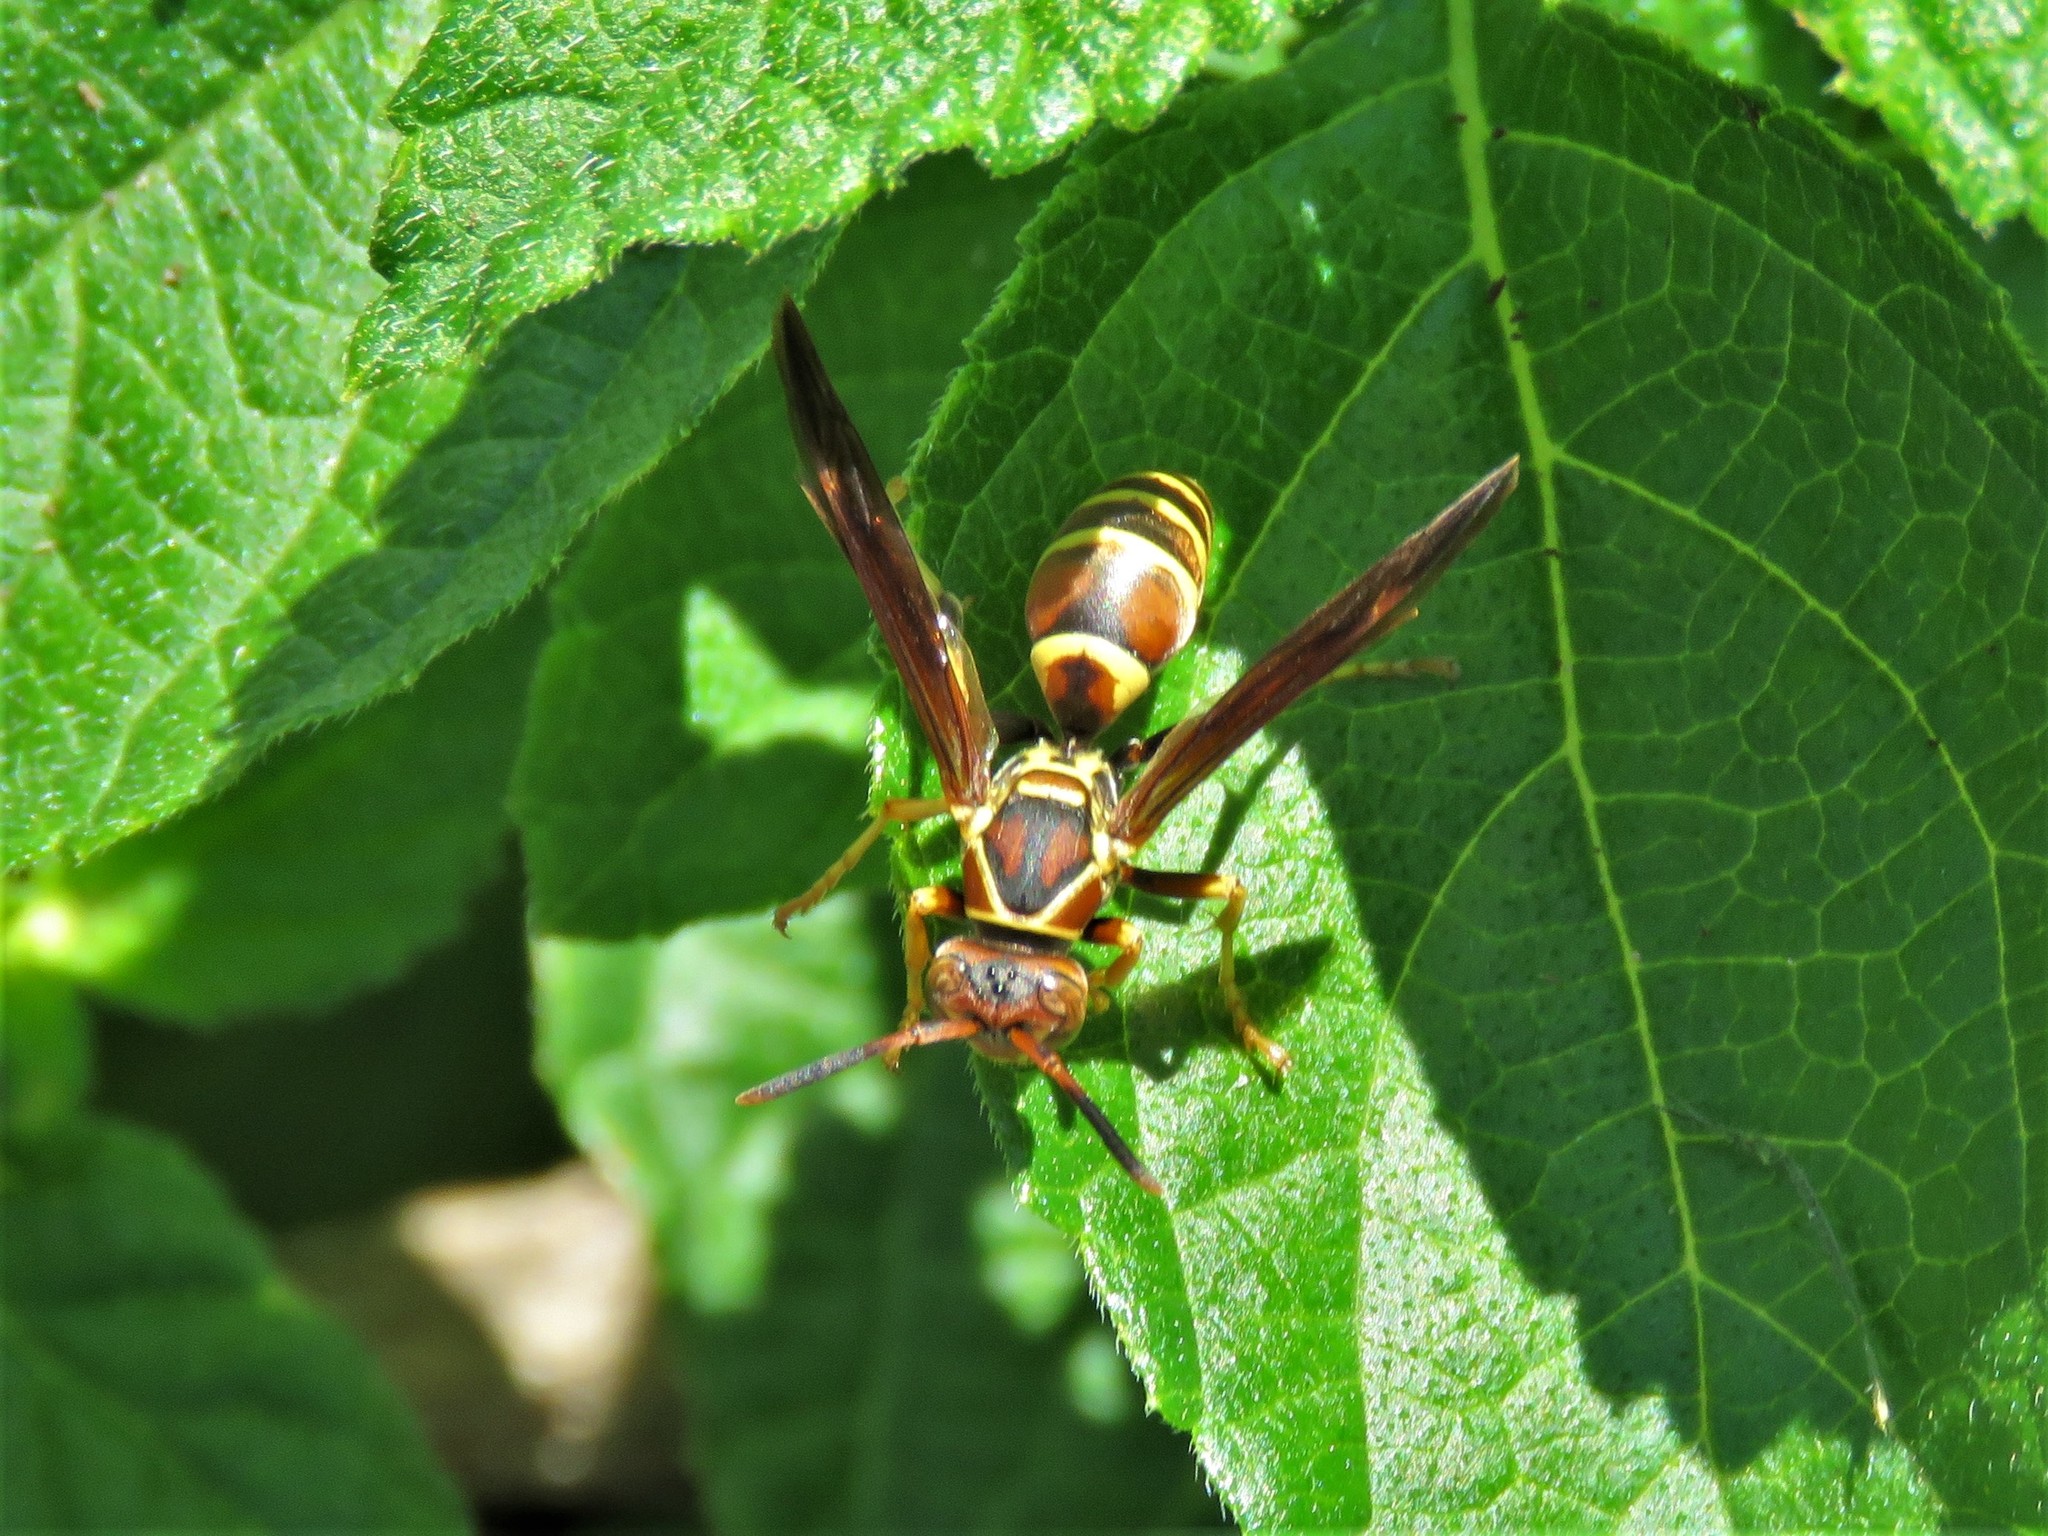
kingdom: Animalia
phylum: Arthropoda
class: Insecta
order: Hymenoptera
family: Eumenidae
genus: Polistes
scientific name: Polistes exclamans
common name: Paper wasp
